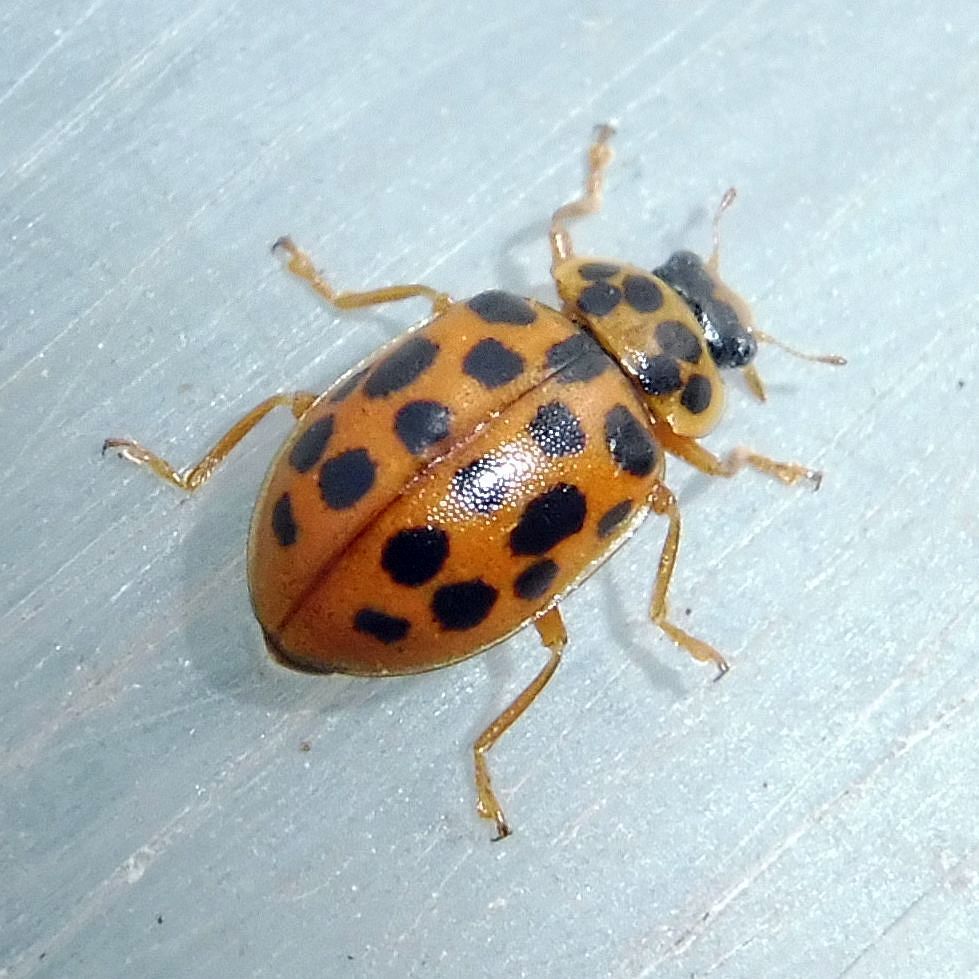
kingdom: Animalia
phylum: Arthropoda
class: Insecta
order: Coleoptera
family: Coccinellidae
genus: Anisosticta
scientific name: Anisosticta novemdecimpunctata
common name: Water ladybird
